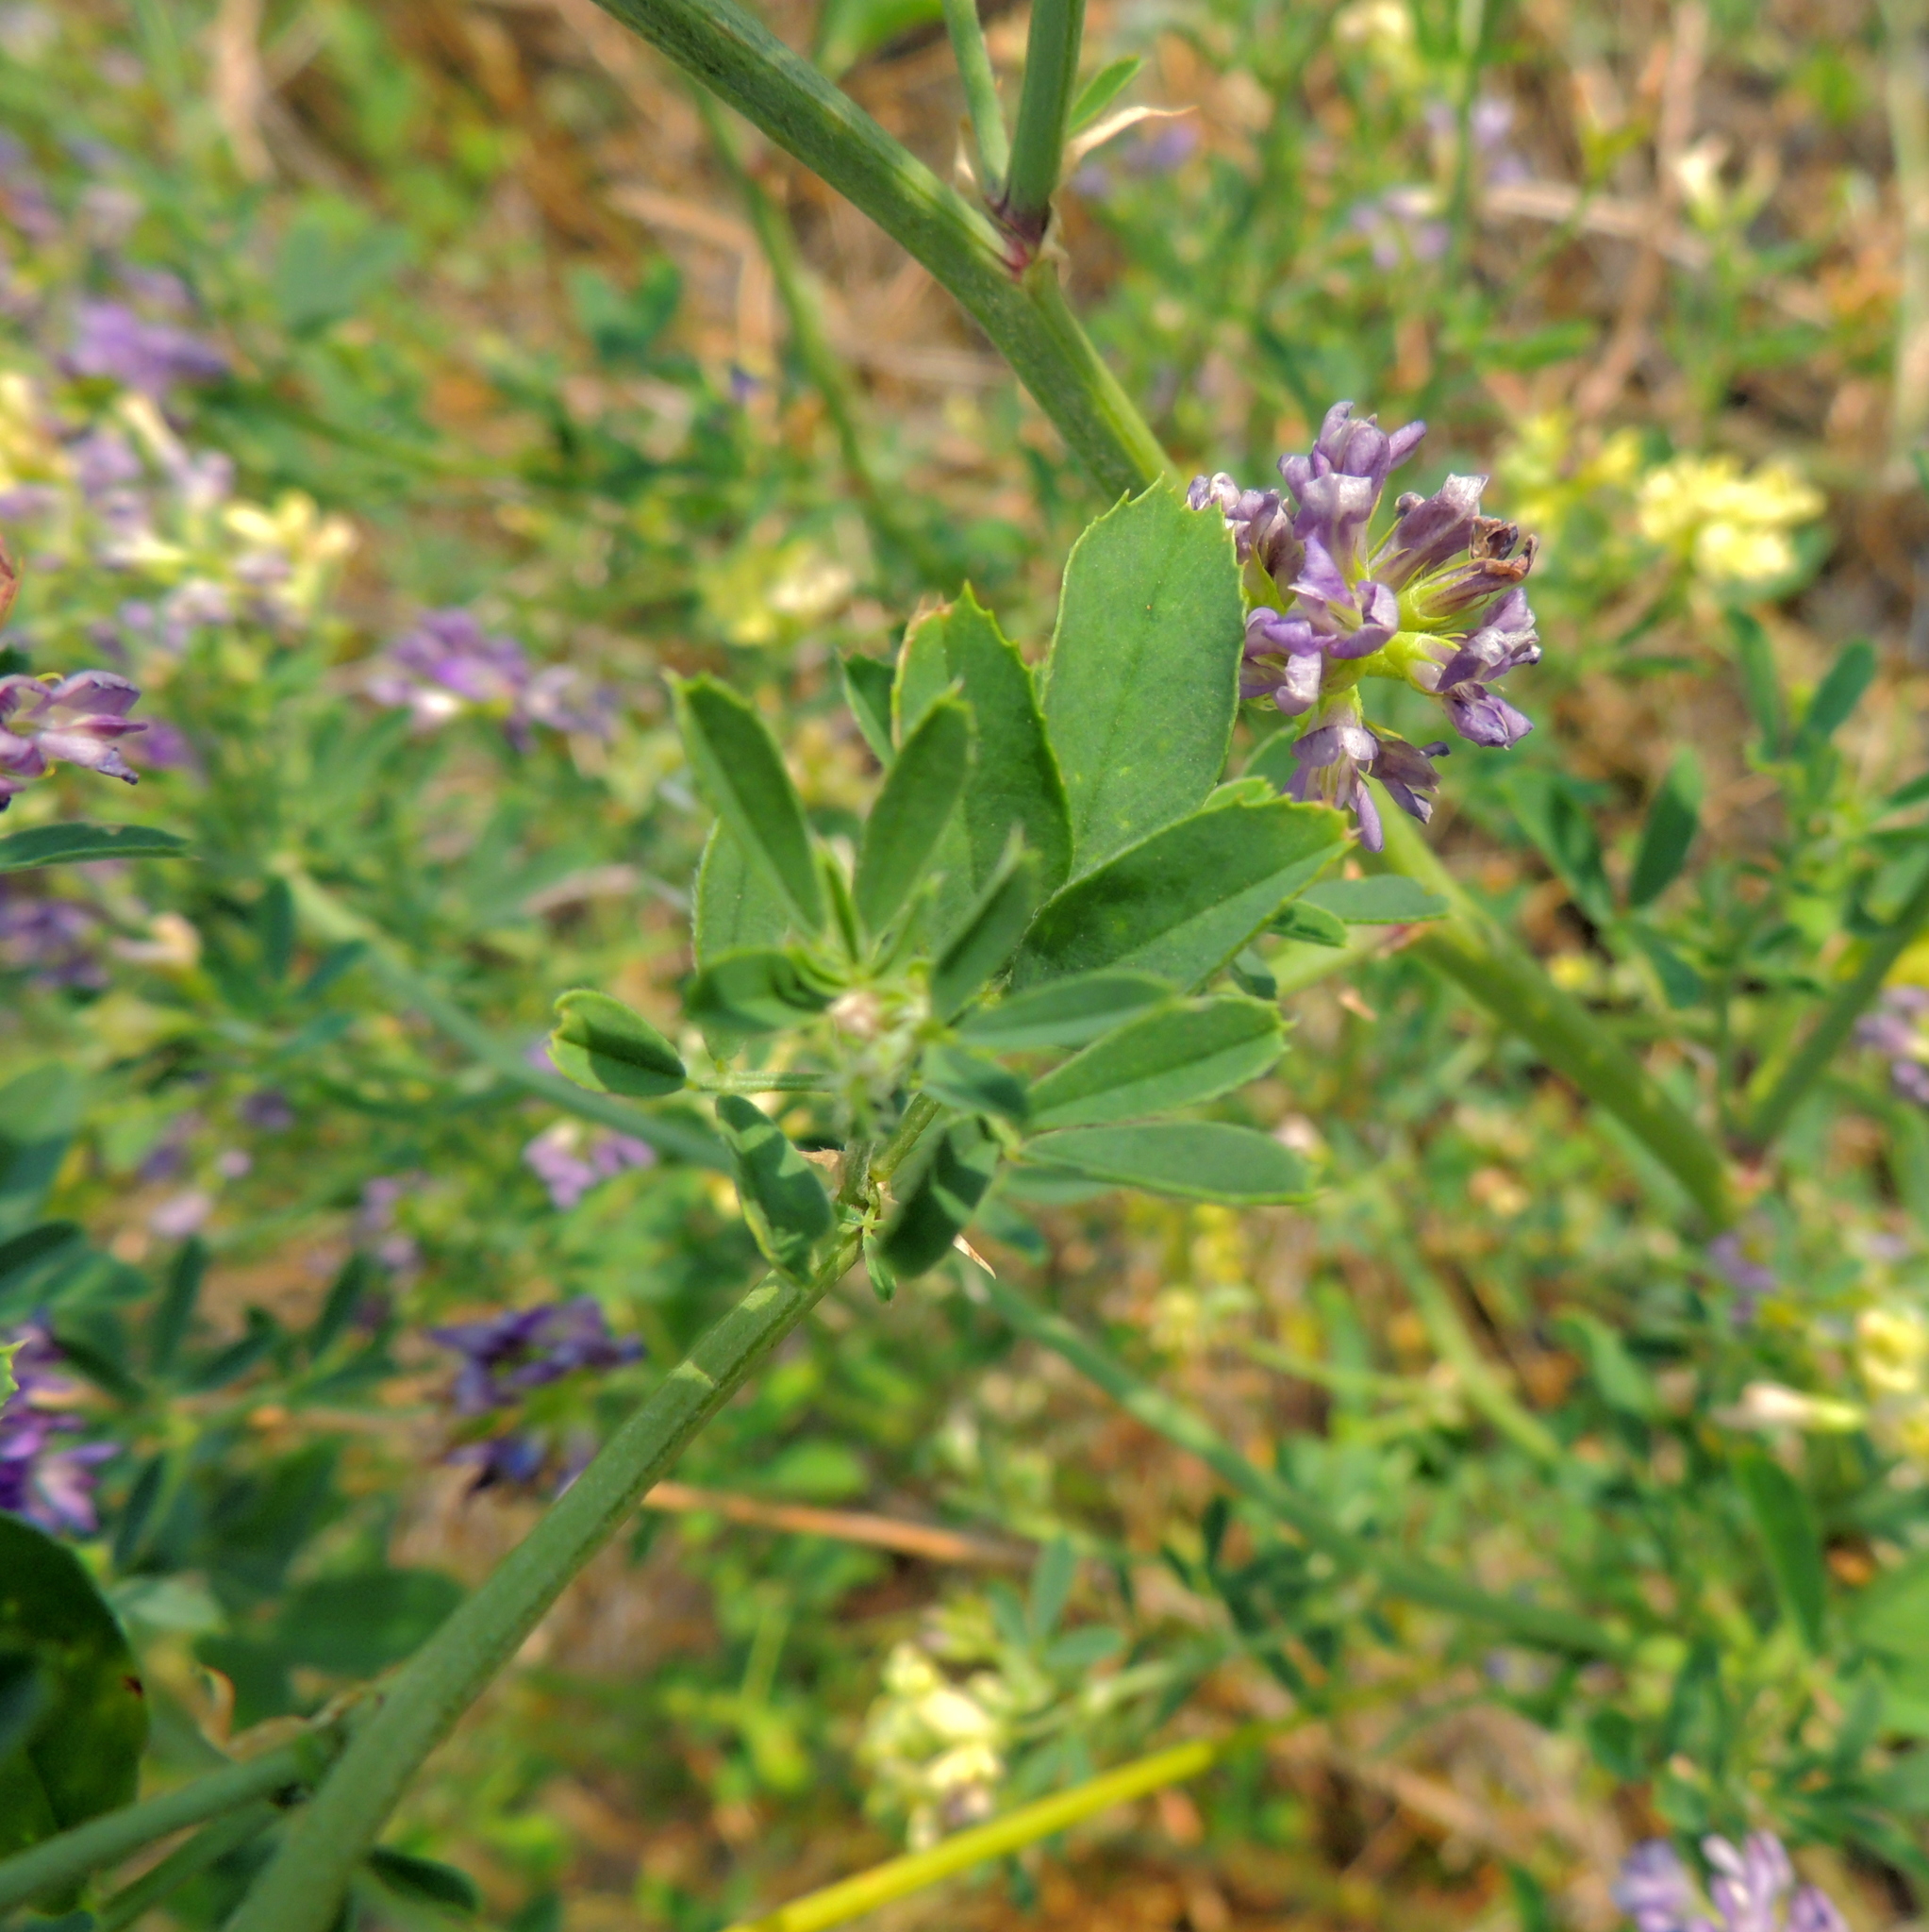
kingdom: Plantae
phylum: Tracheophyta
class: Magnoliopsida
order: Fabales
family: Fabaceae
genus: Medicago
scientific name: Medicago varia
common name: Sand lucerne
